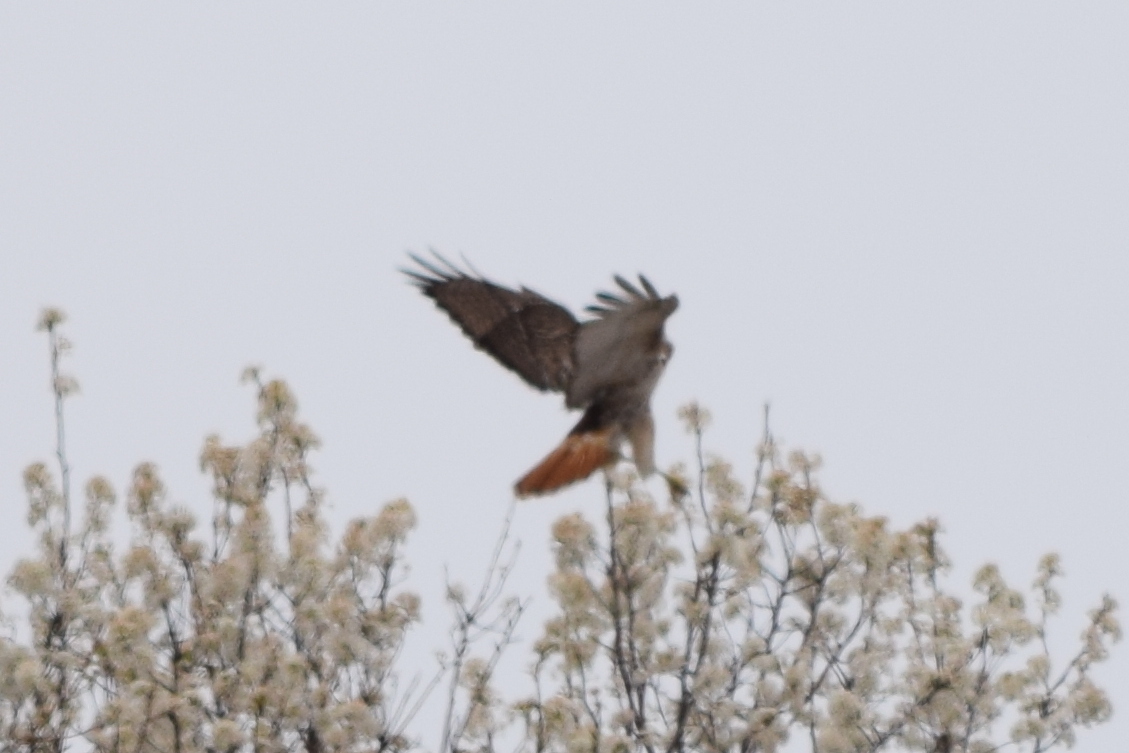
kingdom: Animalia
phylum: Chordata
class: Aves
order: Accipitriformes
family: Accipitridae
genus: Buteo
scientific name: Buteo jamaicensis
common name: Red-tailed hawk
